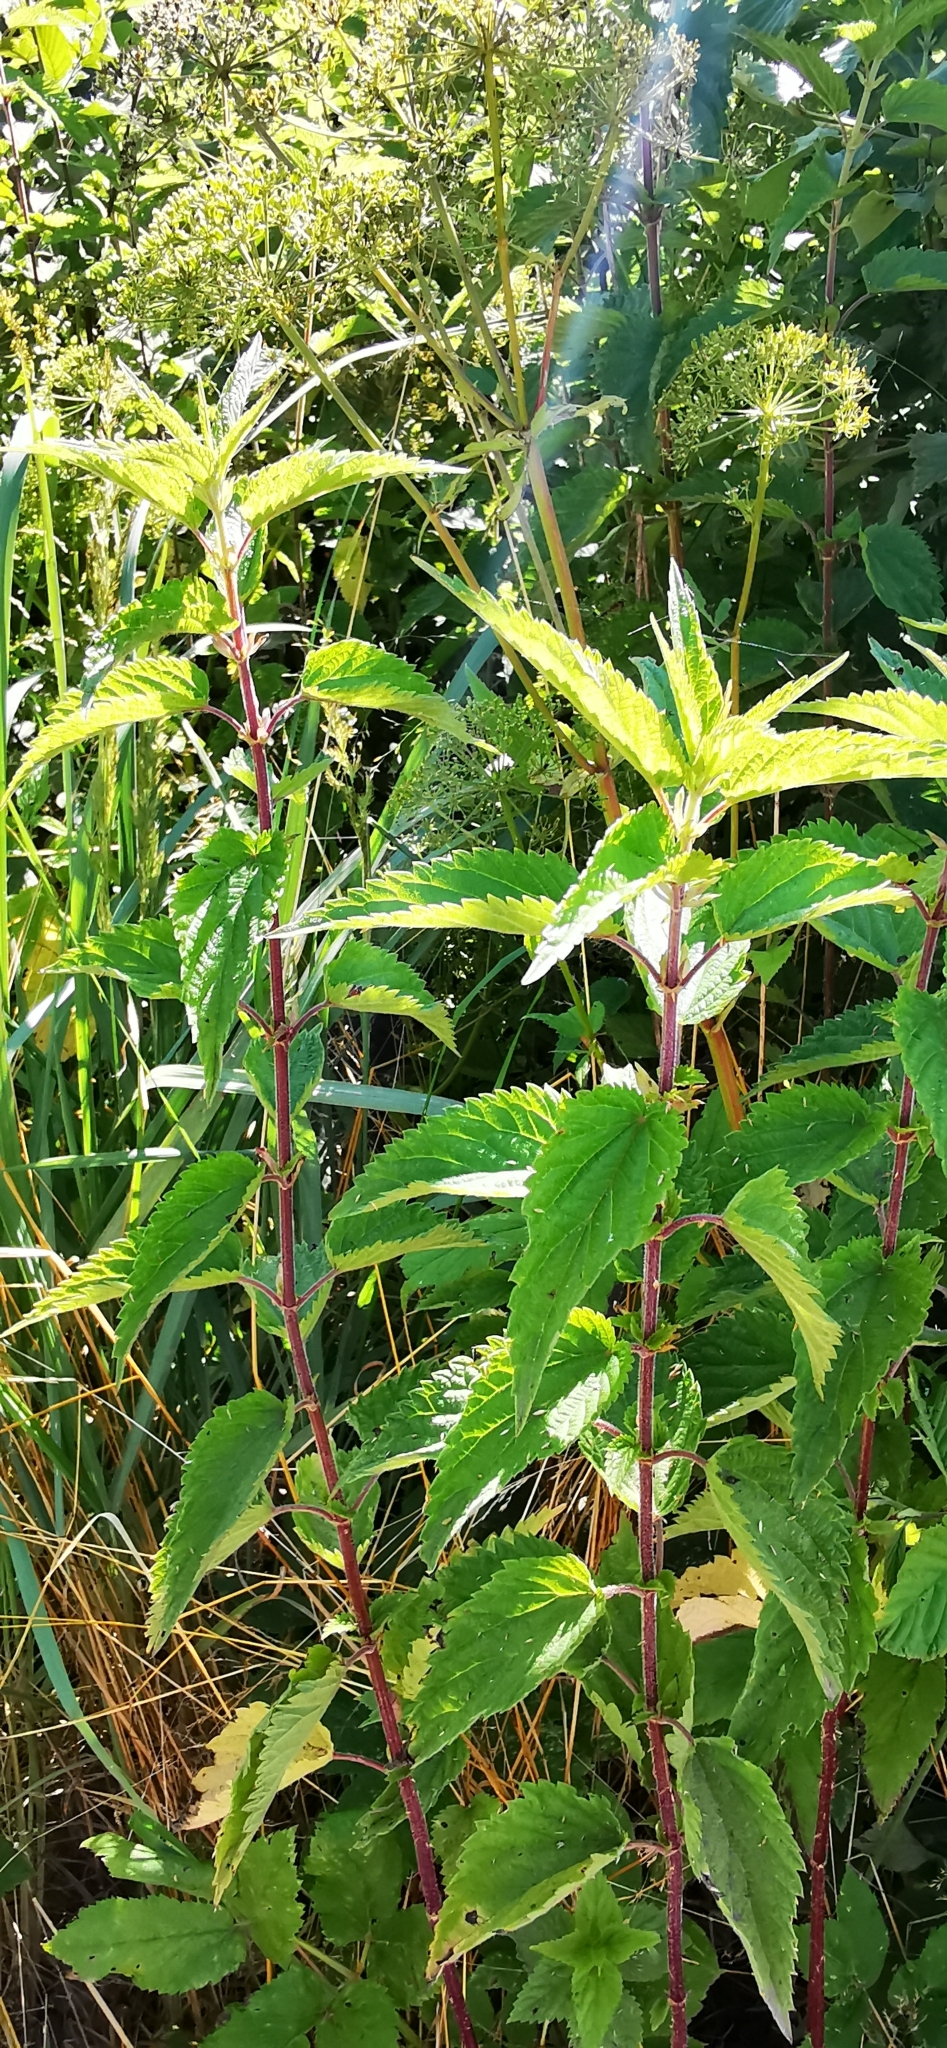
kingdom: Plantae
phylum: Tracheophyta
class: Magnoliopsida
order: Rosales
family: Urticaceae
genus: Urtica
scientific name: Urtica dioica
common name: Common nettle
